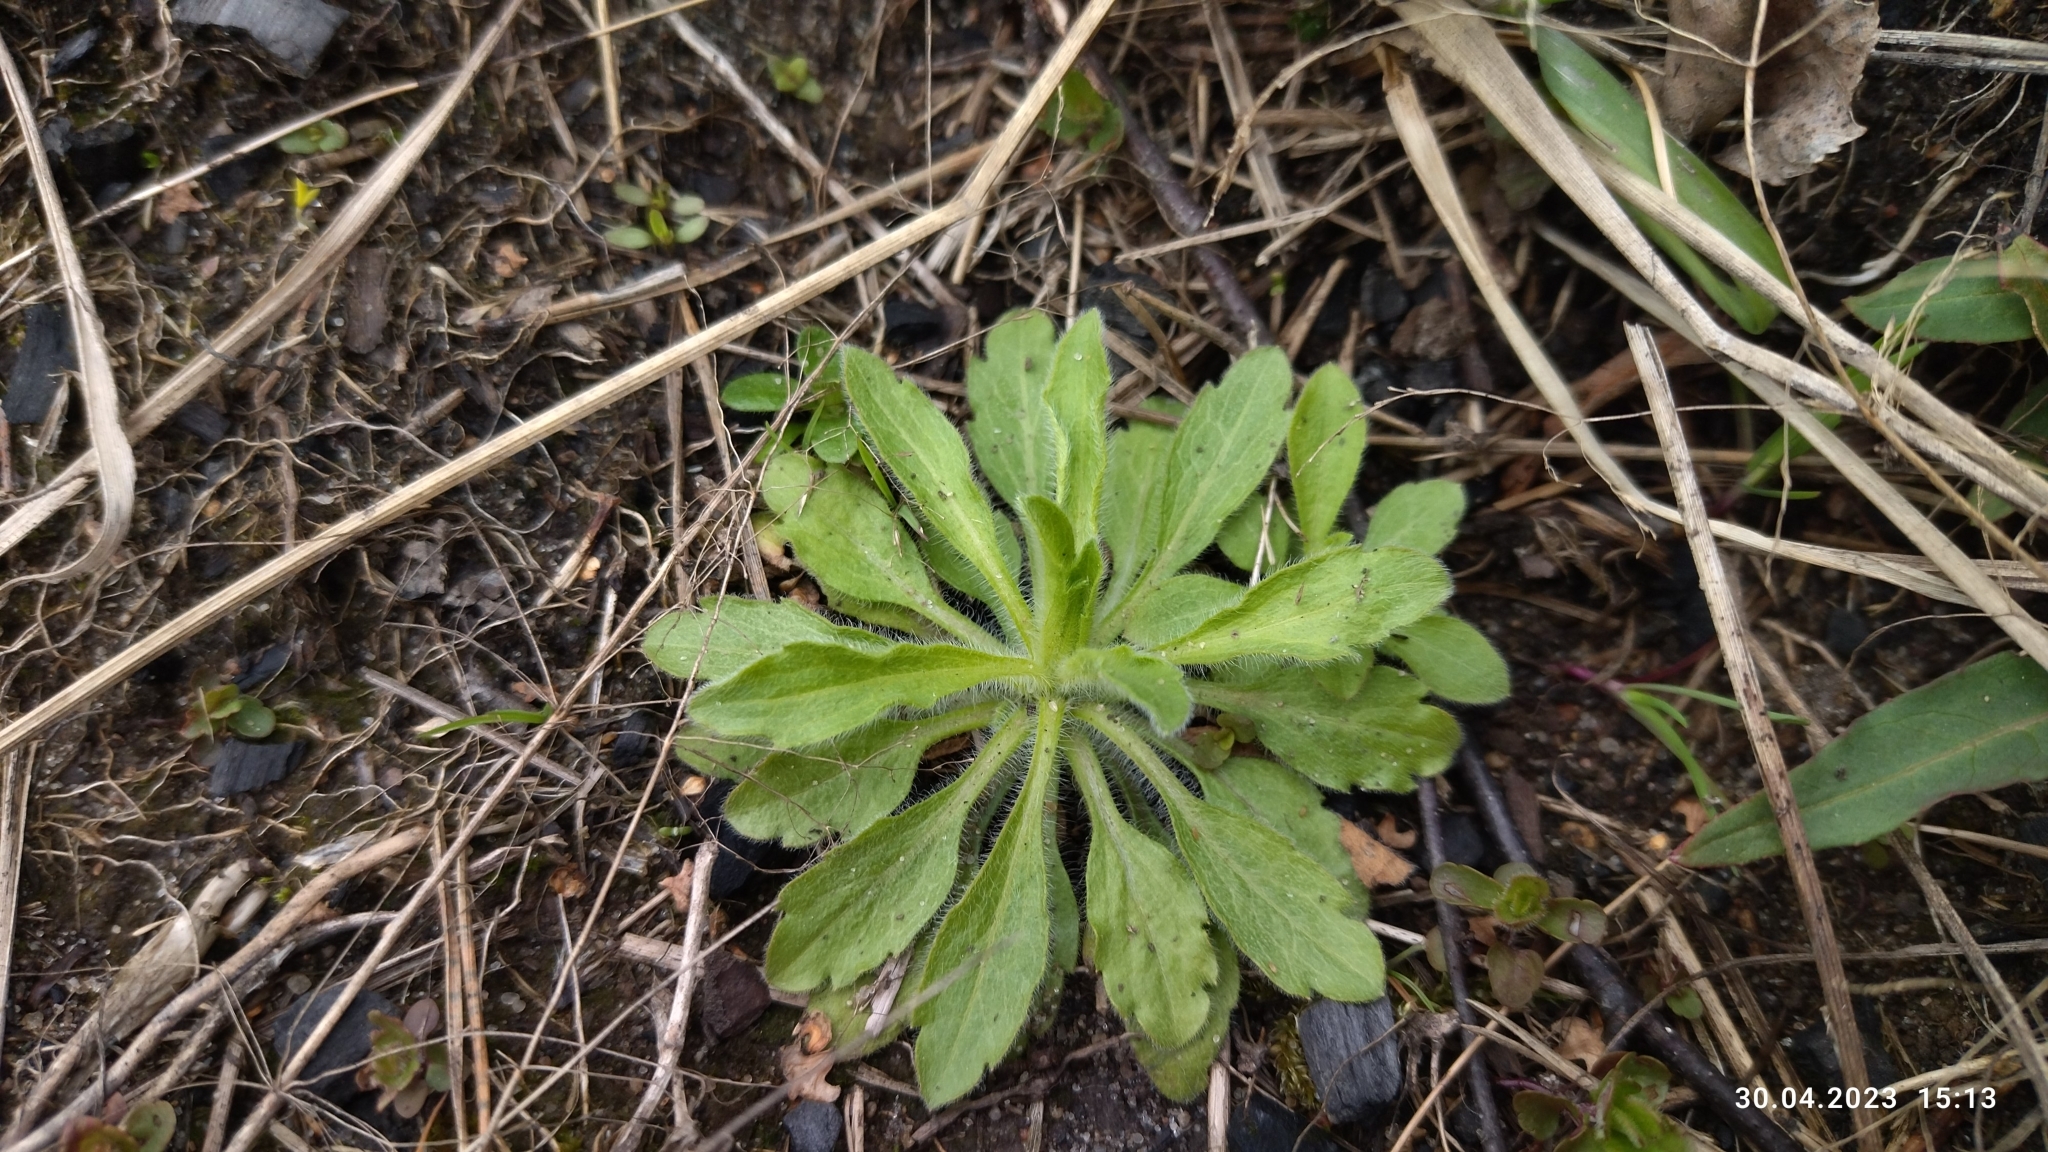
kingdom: Plantae
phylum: Tracheophyta
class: Magnoliopsida
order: Asterales
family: Asteraceae
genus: Erigeron
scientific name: Erigeron canadensis
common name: Canadian fleabane
